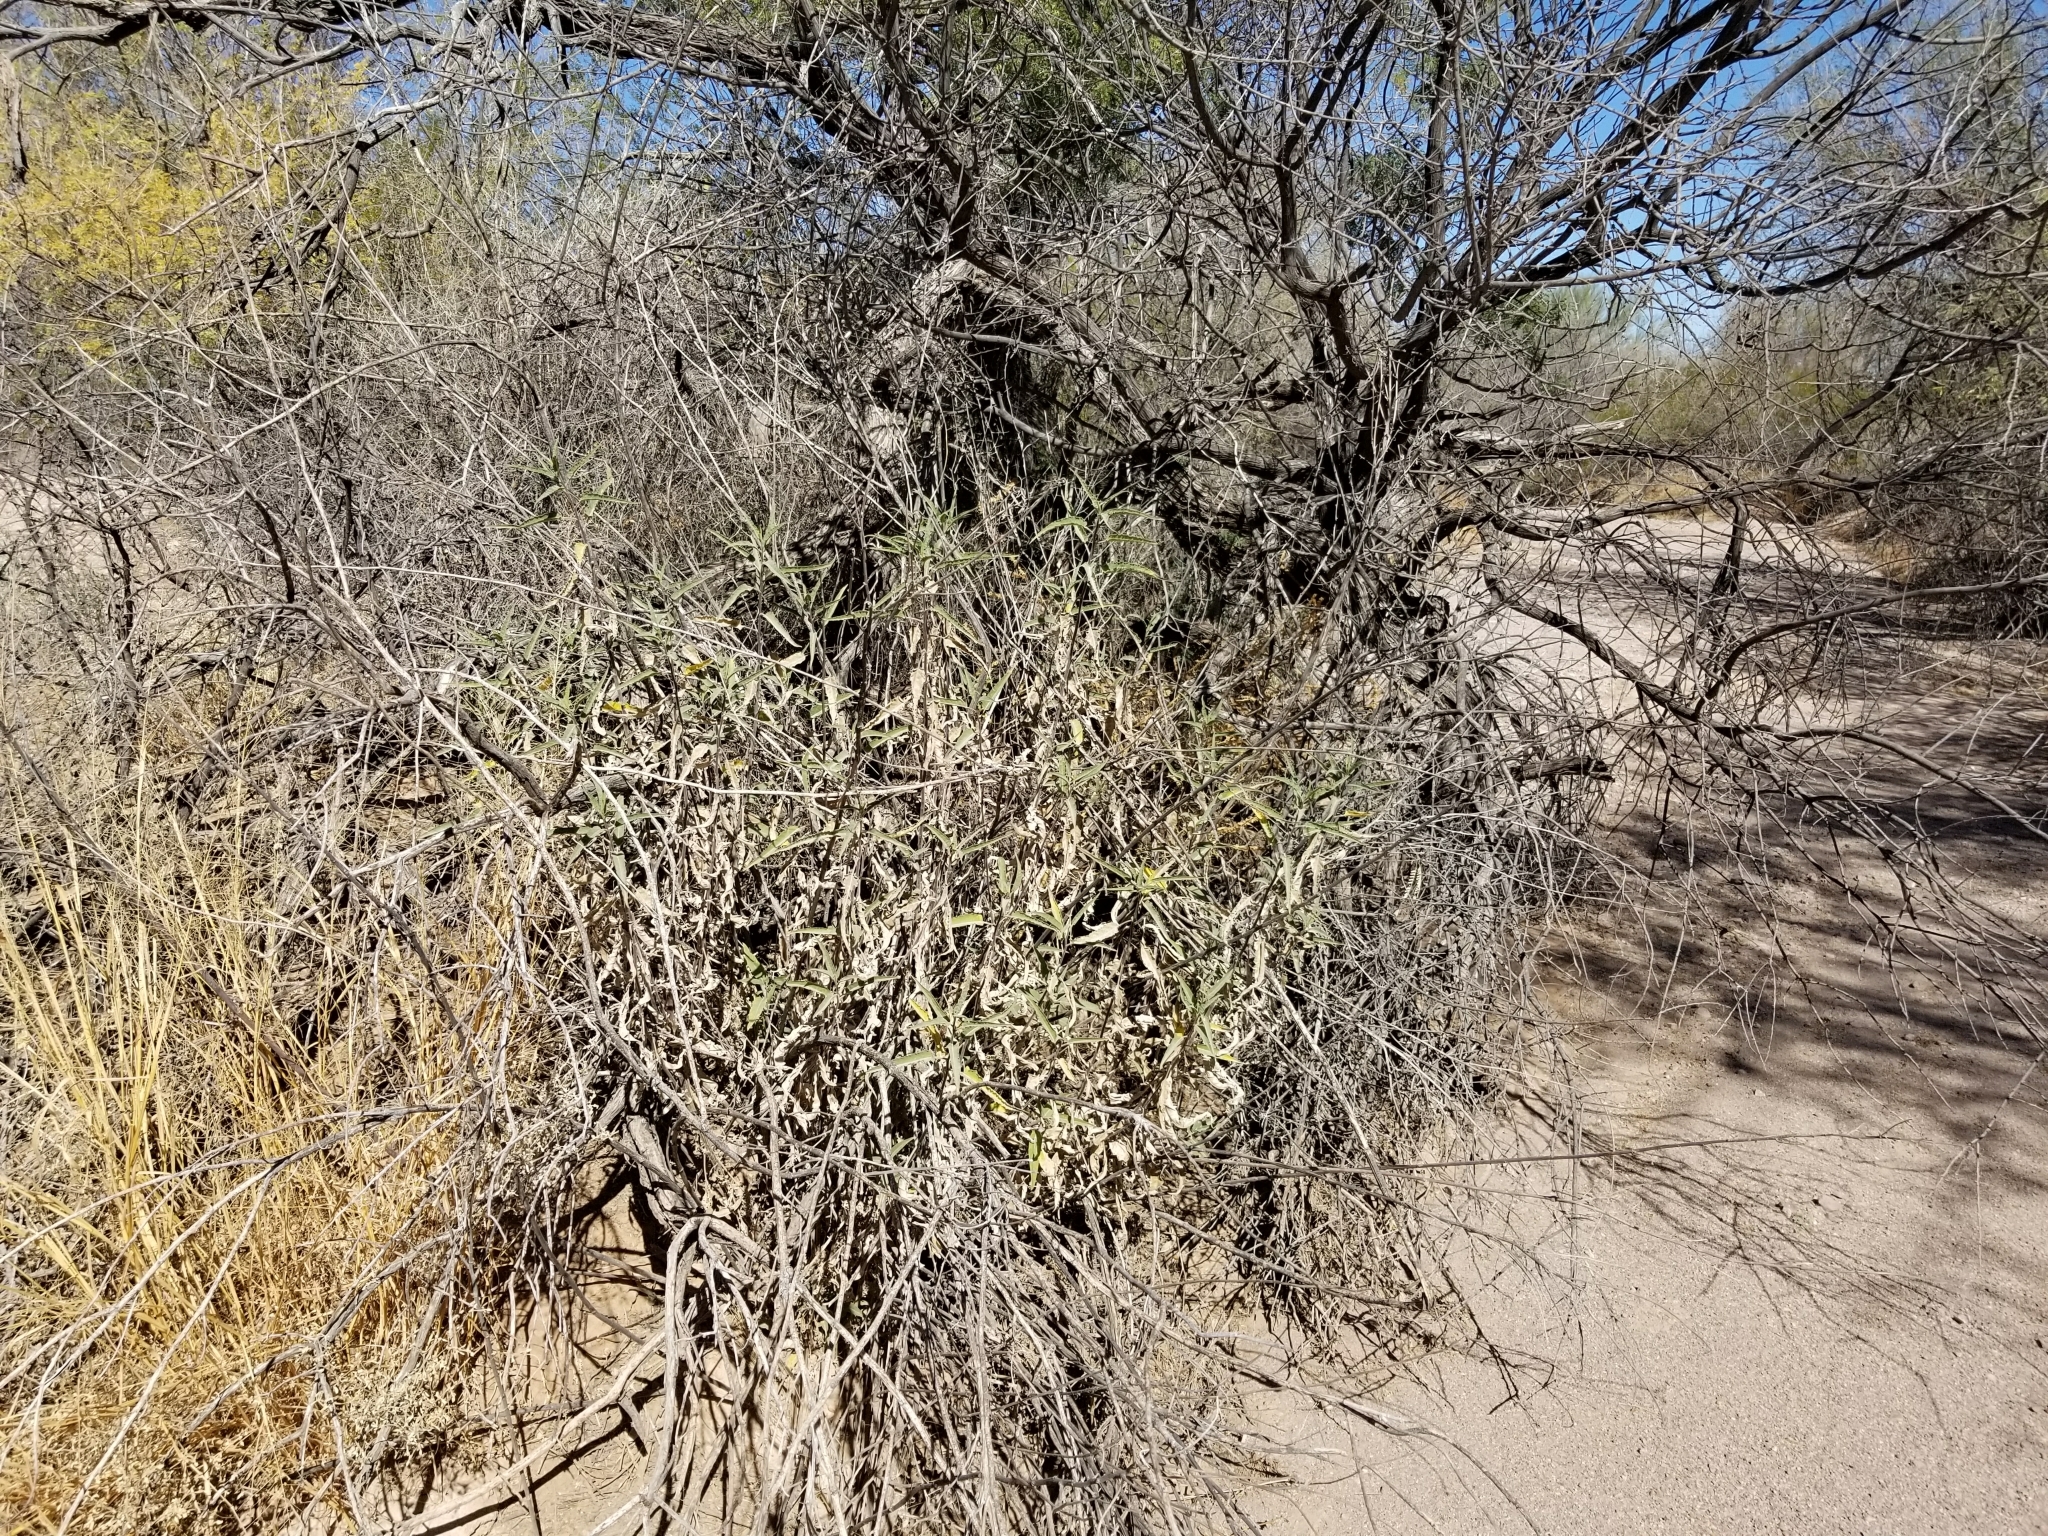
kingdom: Plantae
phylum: Tracheophyta
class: Magnoliopsida
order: Asterales
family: Asteraceae
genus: Ambrosia
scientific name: Ambrosia ambrosioides
